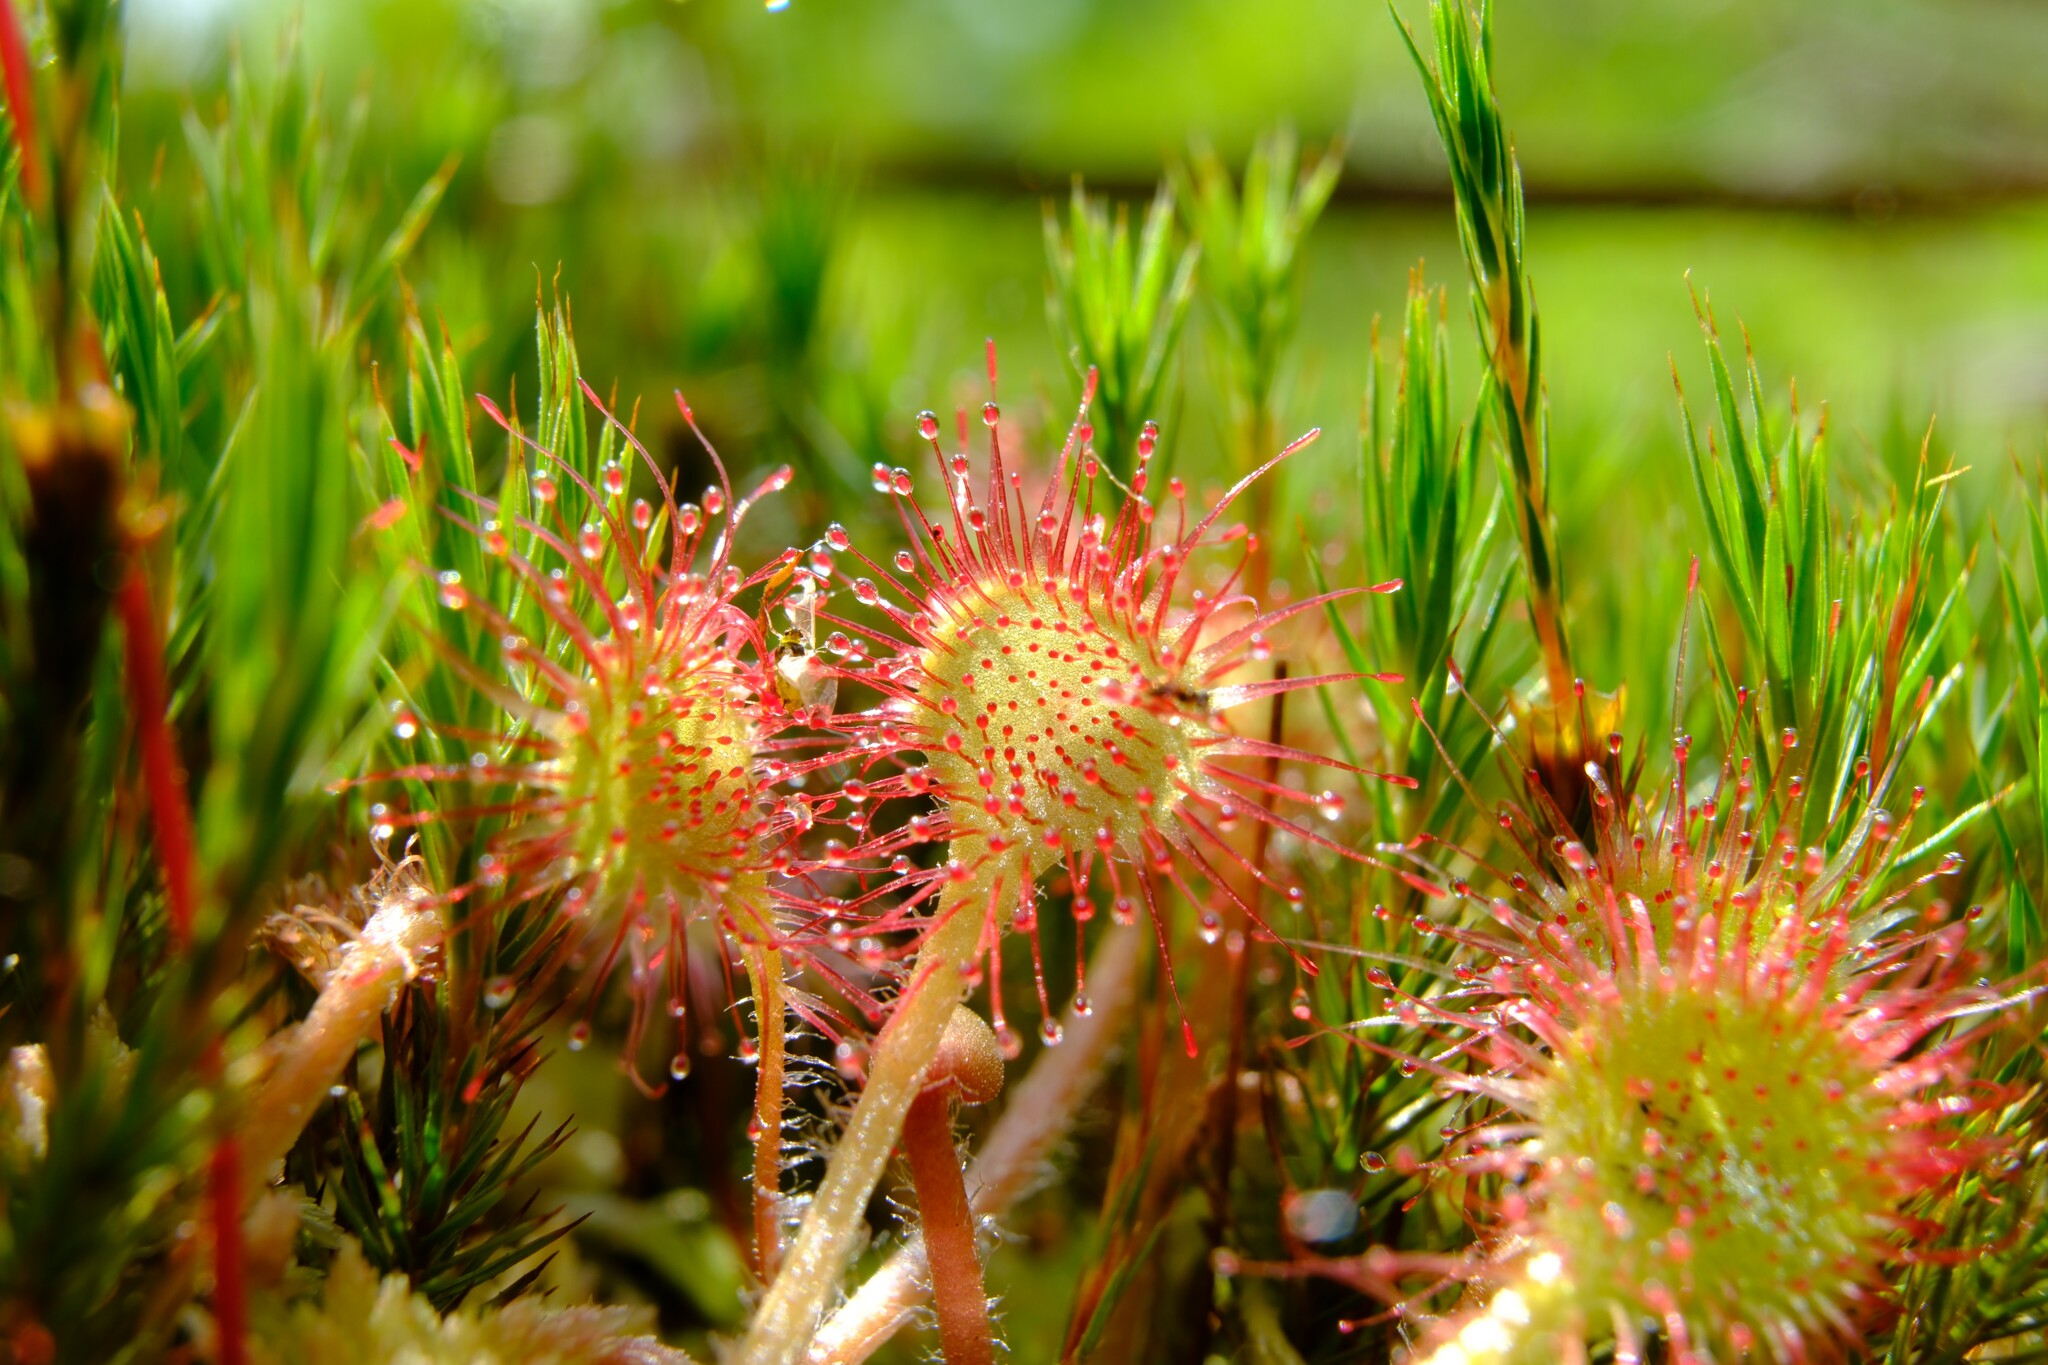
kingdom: Plantae
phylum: Tracheophyta
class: Magnoliopsida
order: Caryophyllales
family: Droseraceae
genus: Drosera
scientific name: Drosera rotundifolia
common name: Round-leaved sundew
